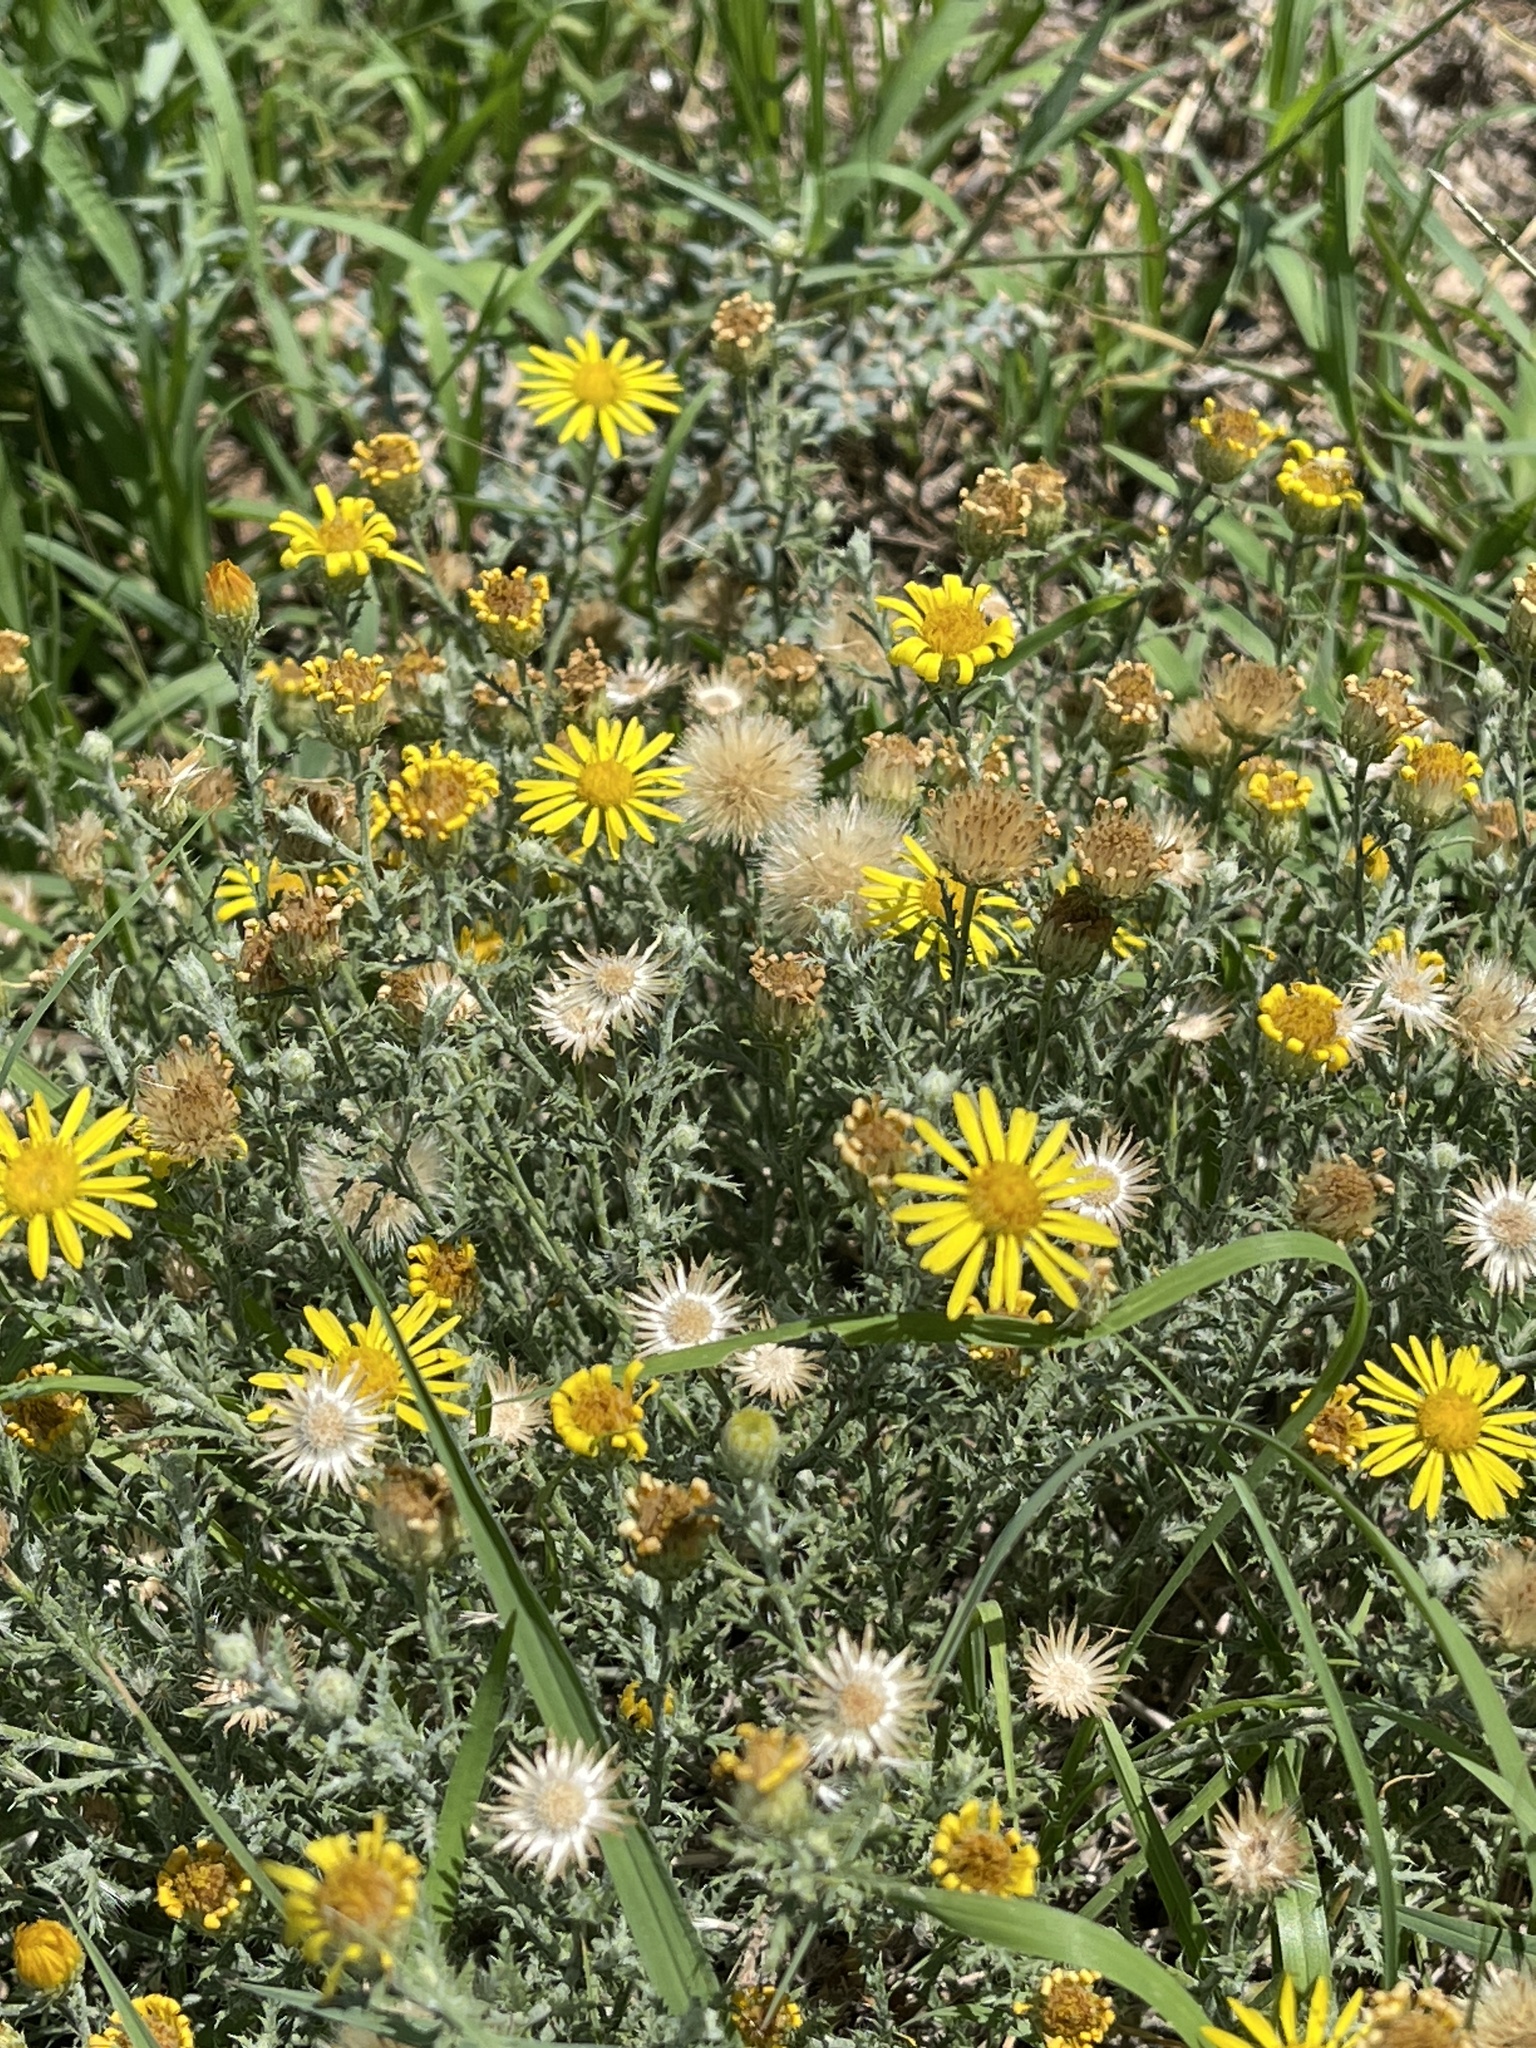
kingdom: Plantae
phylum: Tracheophyta
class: Magnoliopsida
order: Asterales
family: Asteraceae
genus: Xanthisma
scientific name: Xanthisma spinulosum
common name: Spiny goldenweed
